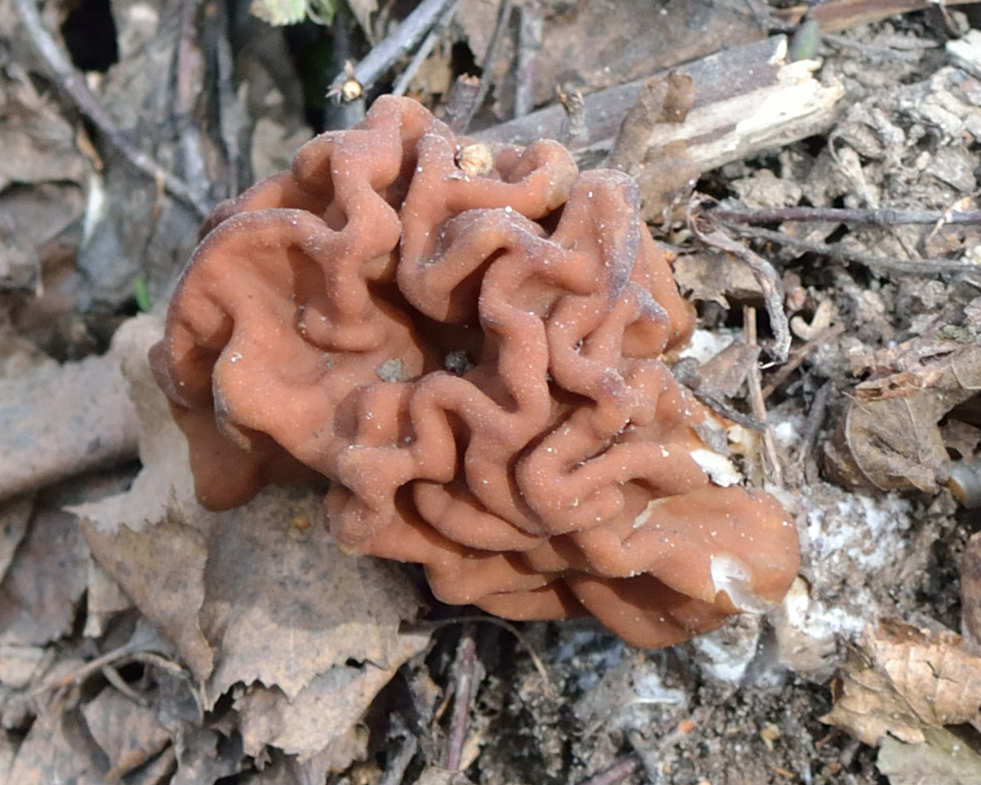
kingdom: Fungi
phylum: Ascomycota
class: Pezizomycetes
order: Pezizales
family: Discinaceae
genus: Gyromitra
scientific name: Gyromitra gigas
